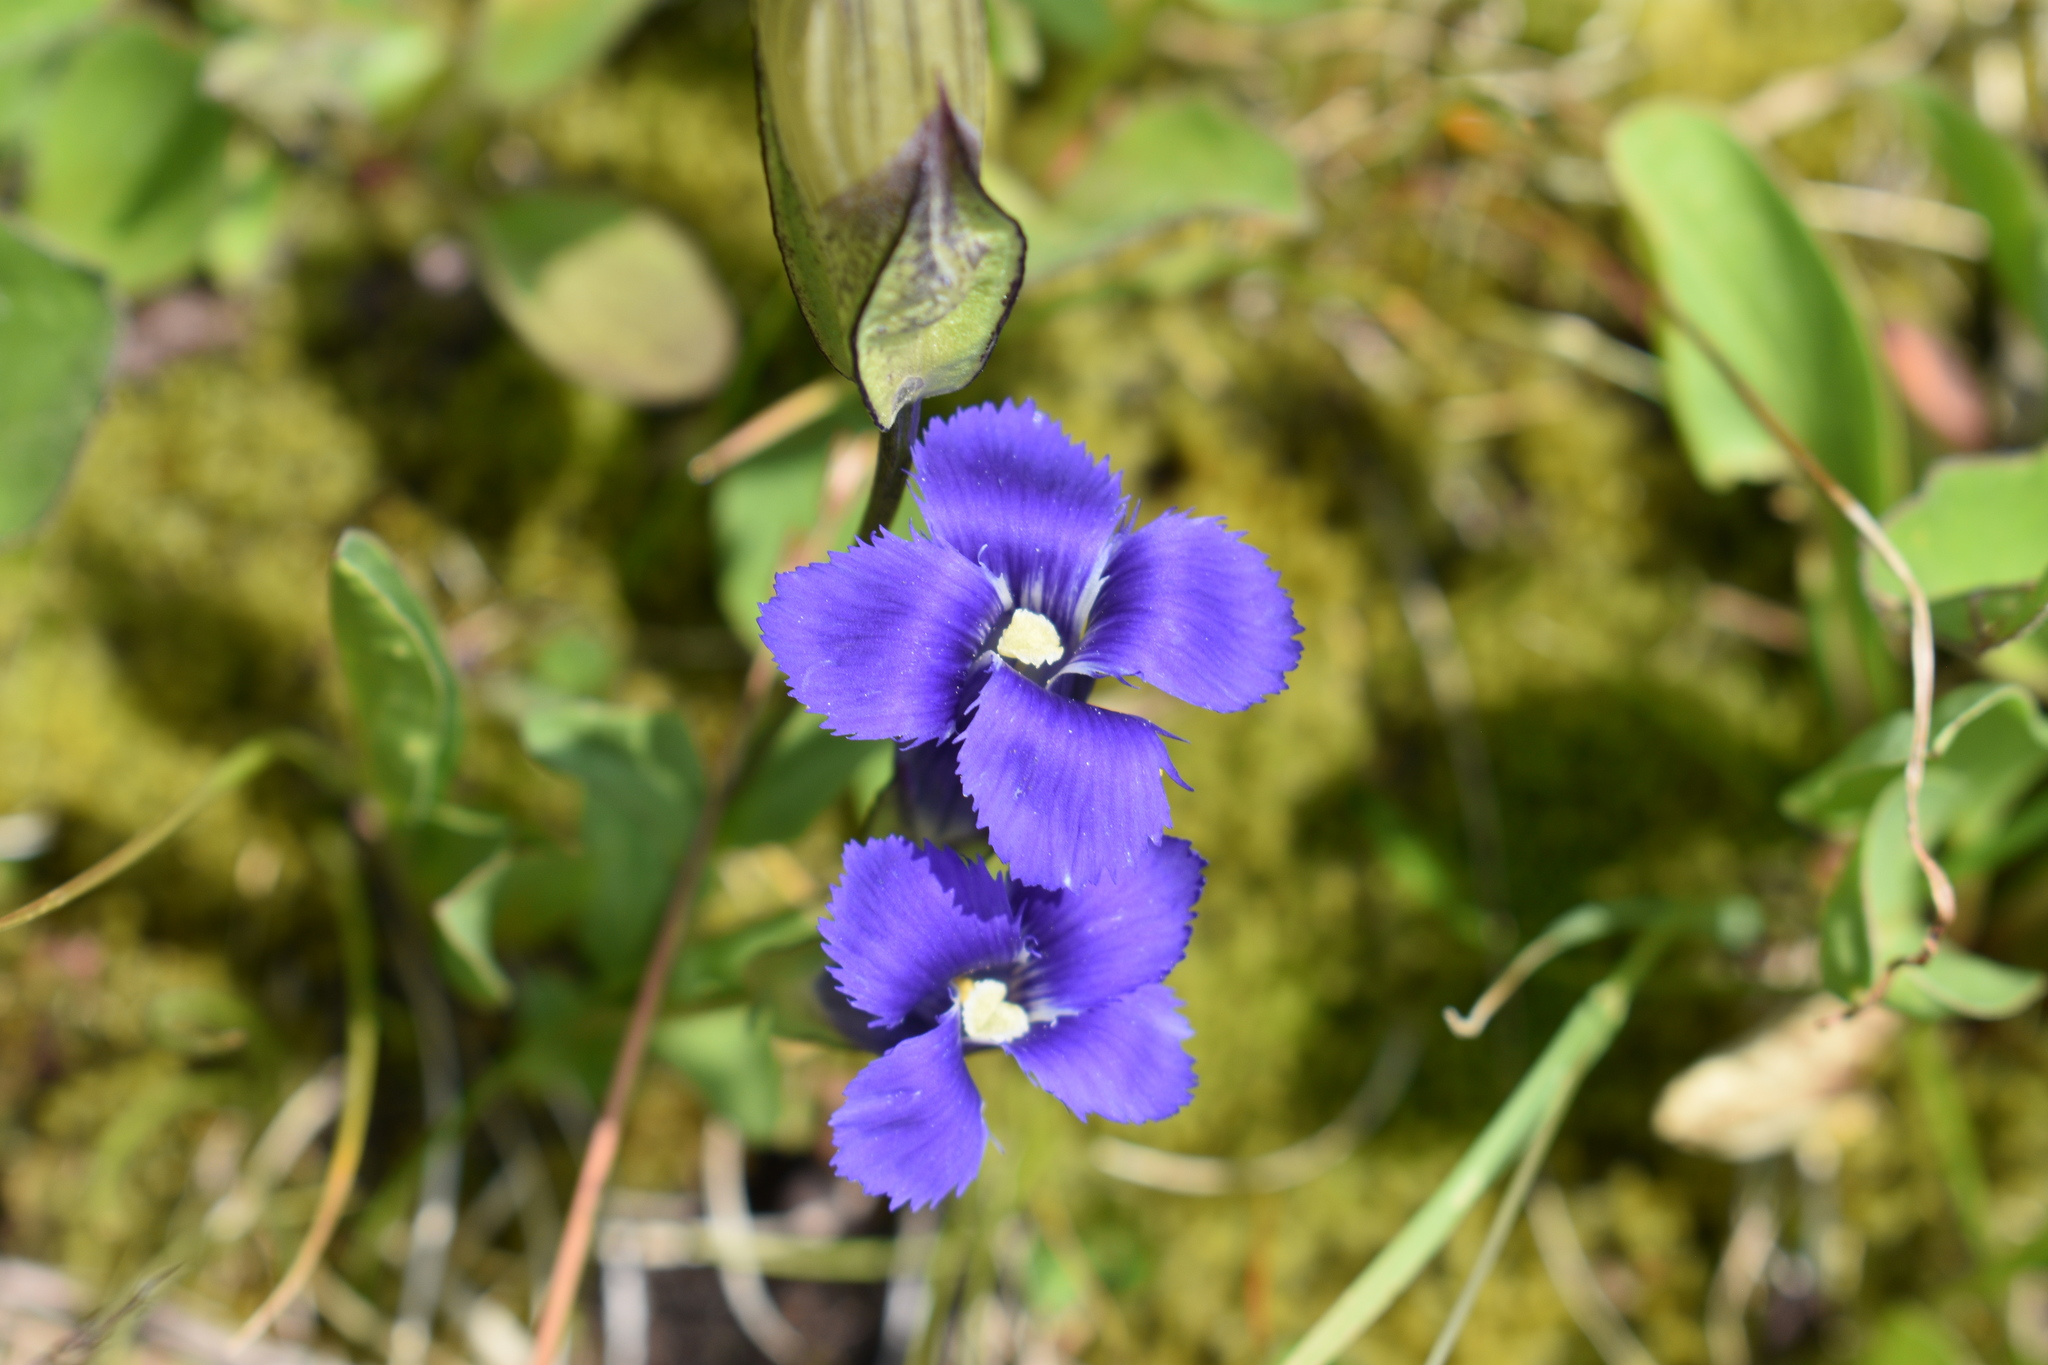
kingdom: Plantae
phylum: Tracheophyta
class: Magnoliopsida
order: Gentianales
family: Gentianaceae
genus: Gentianopsis
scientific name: Gentianopsis thermalis
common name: Rocky mountain fringed-gentian
